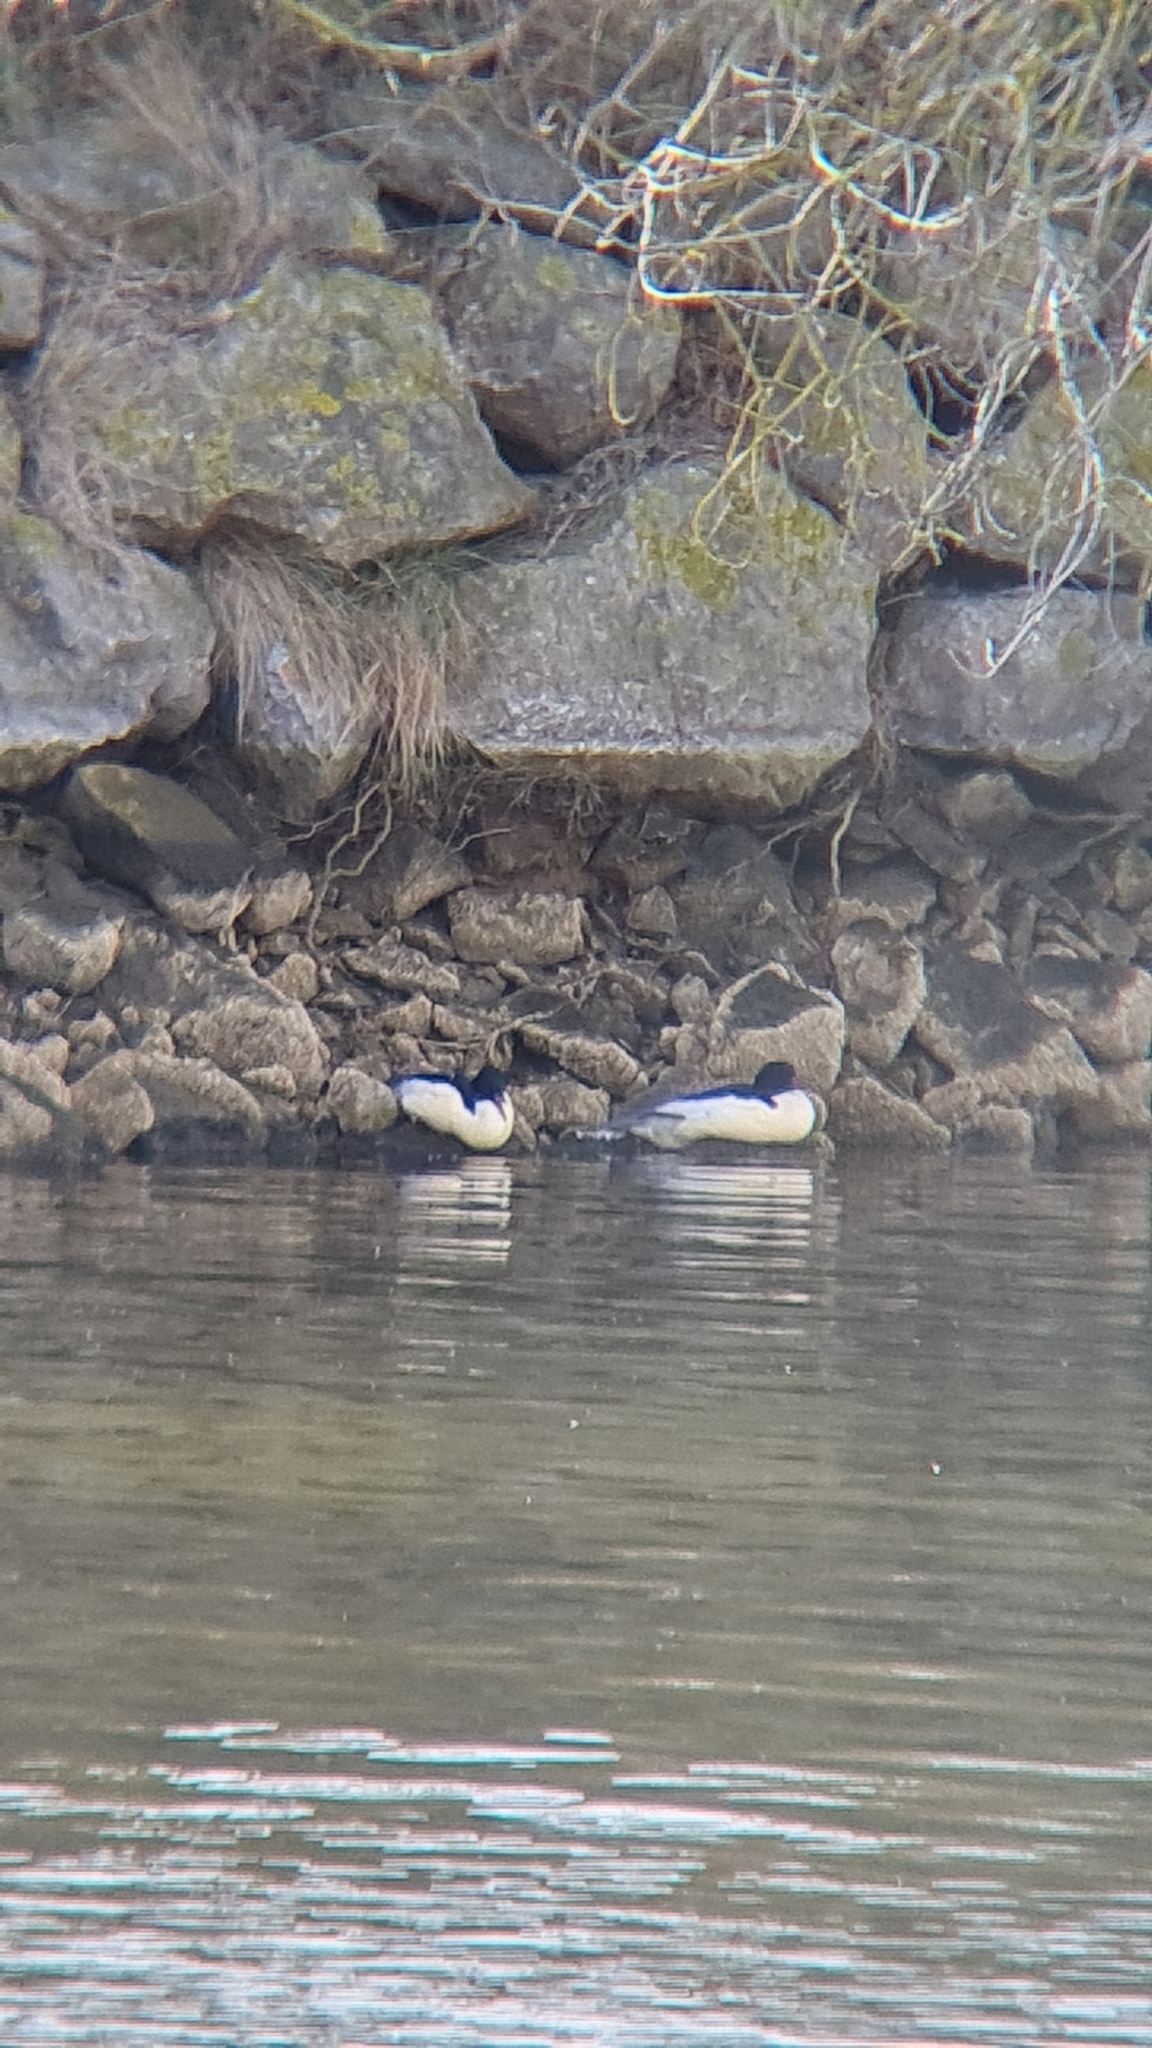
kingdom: Animalia
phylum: Chordata
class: Aves
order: Anseriformes
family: Anatidae
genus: Mergus
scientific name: Mergus merganser
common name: Common merganser
